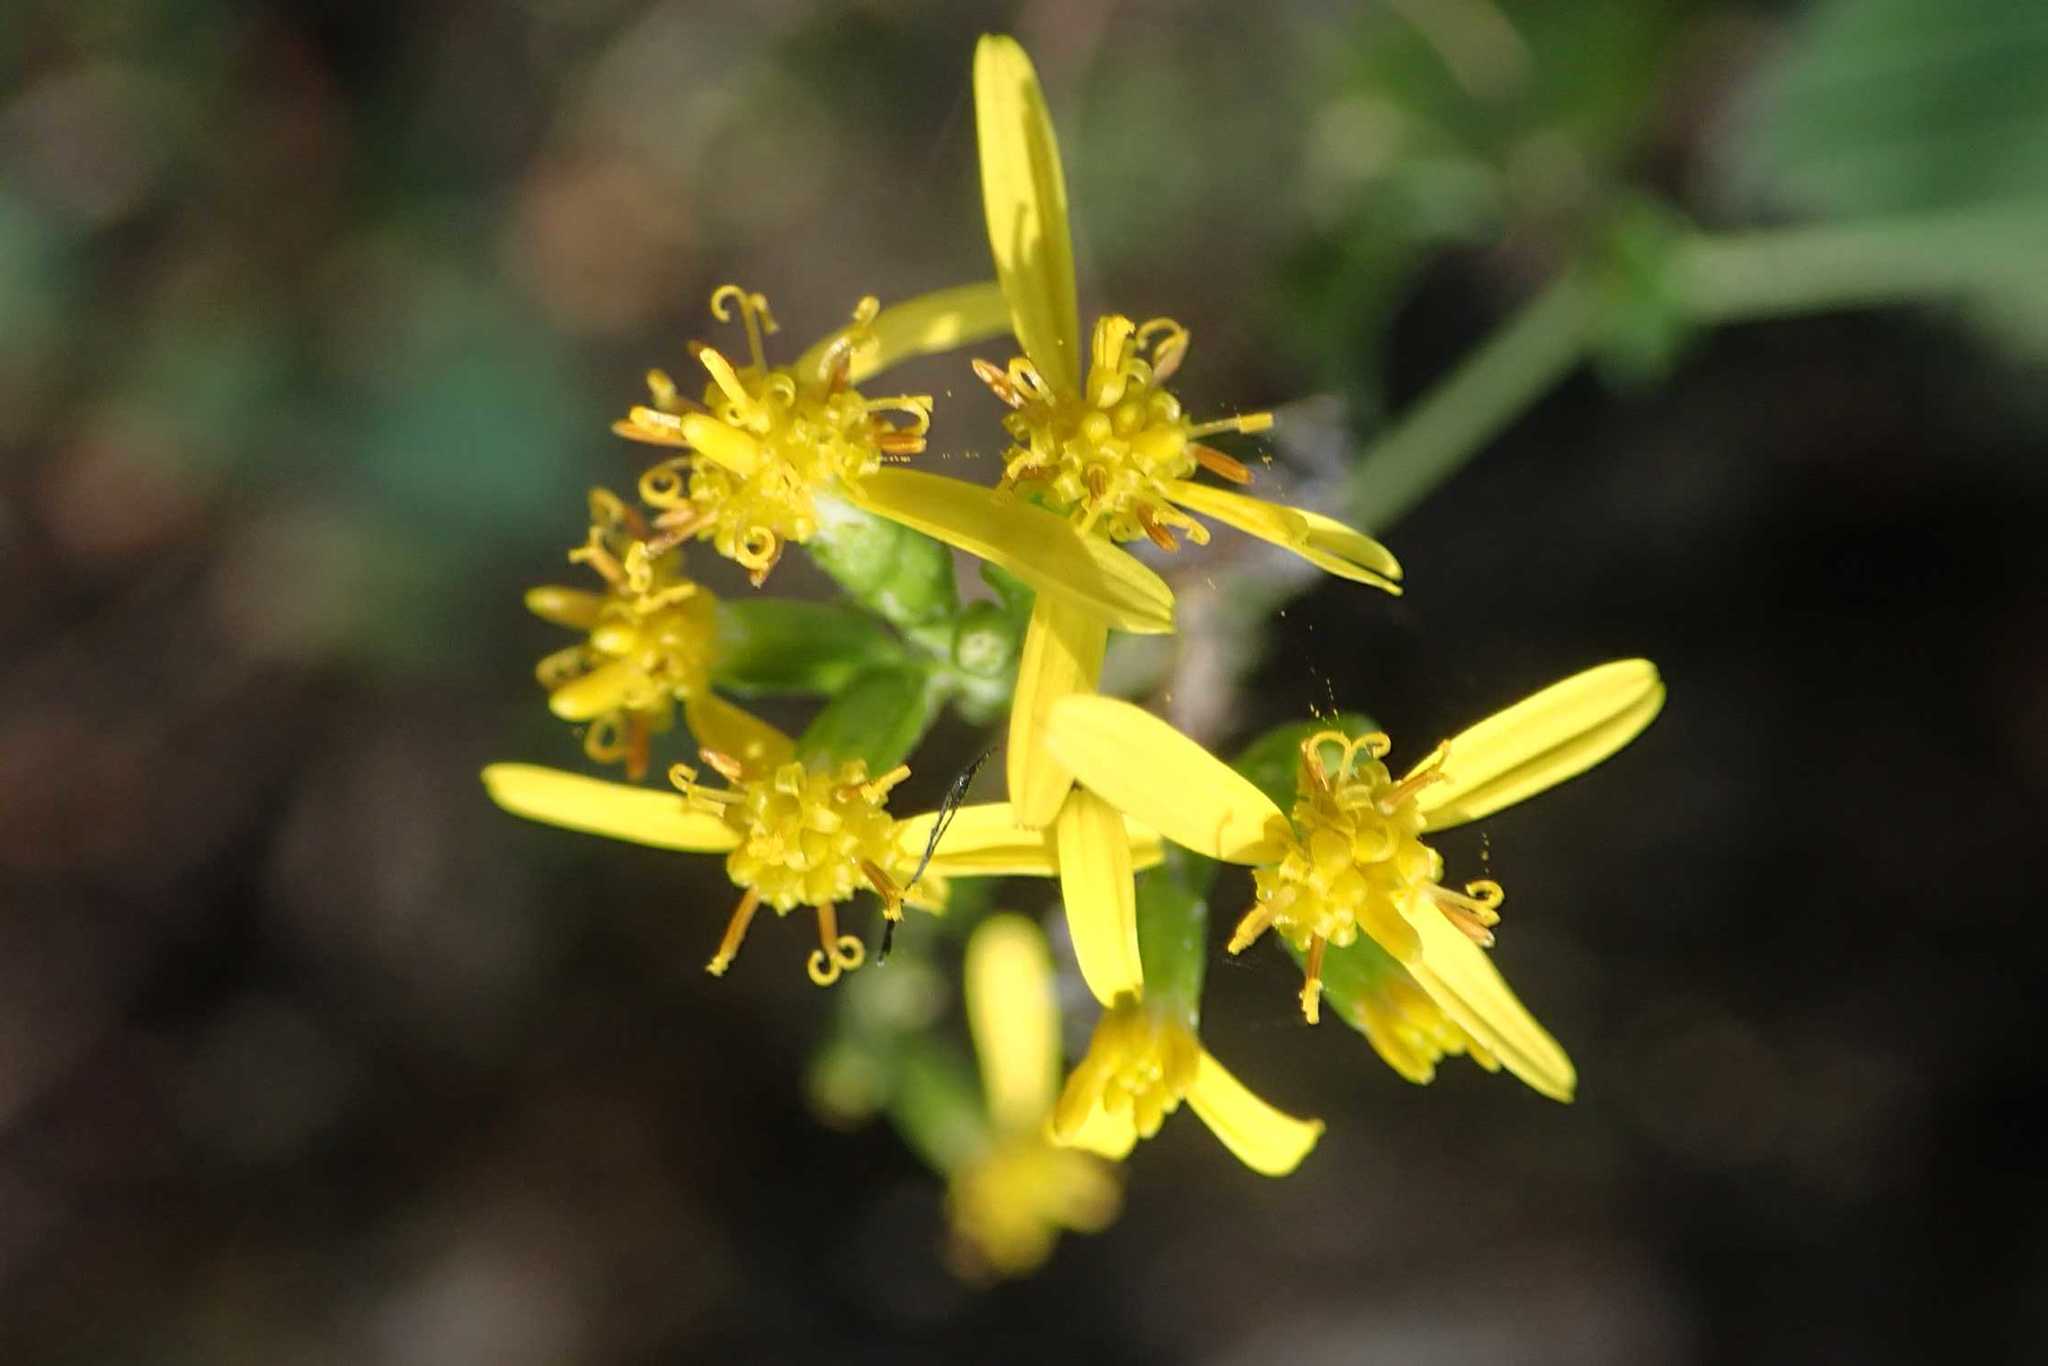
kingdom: Plantae
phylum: Tracheophyta
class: Magnoliopsida
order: Asterales
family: Asteraceae
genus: Senecio
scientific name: Senecio deltoideus
